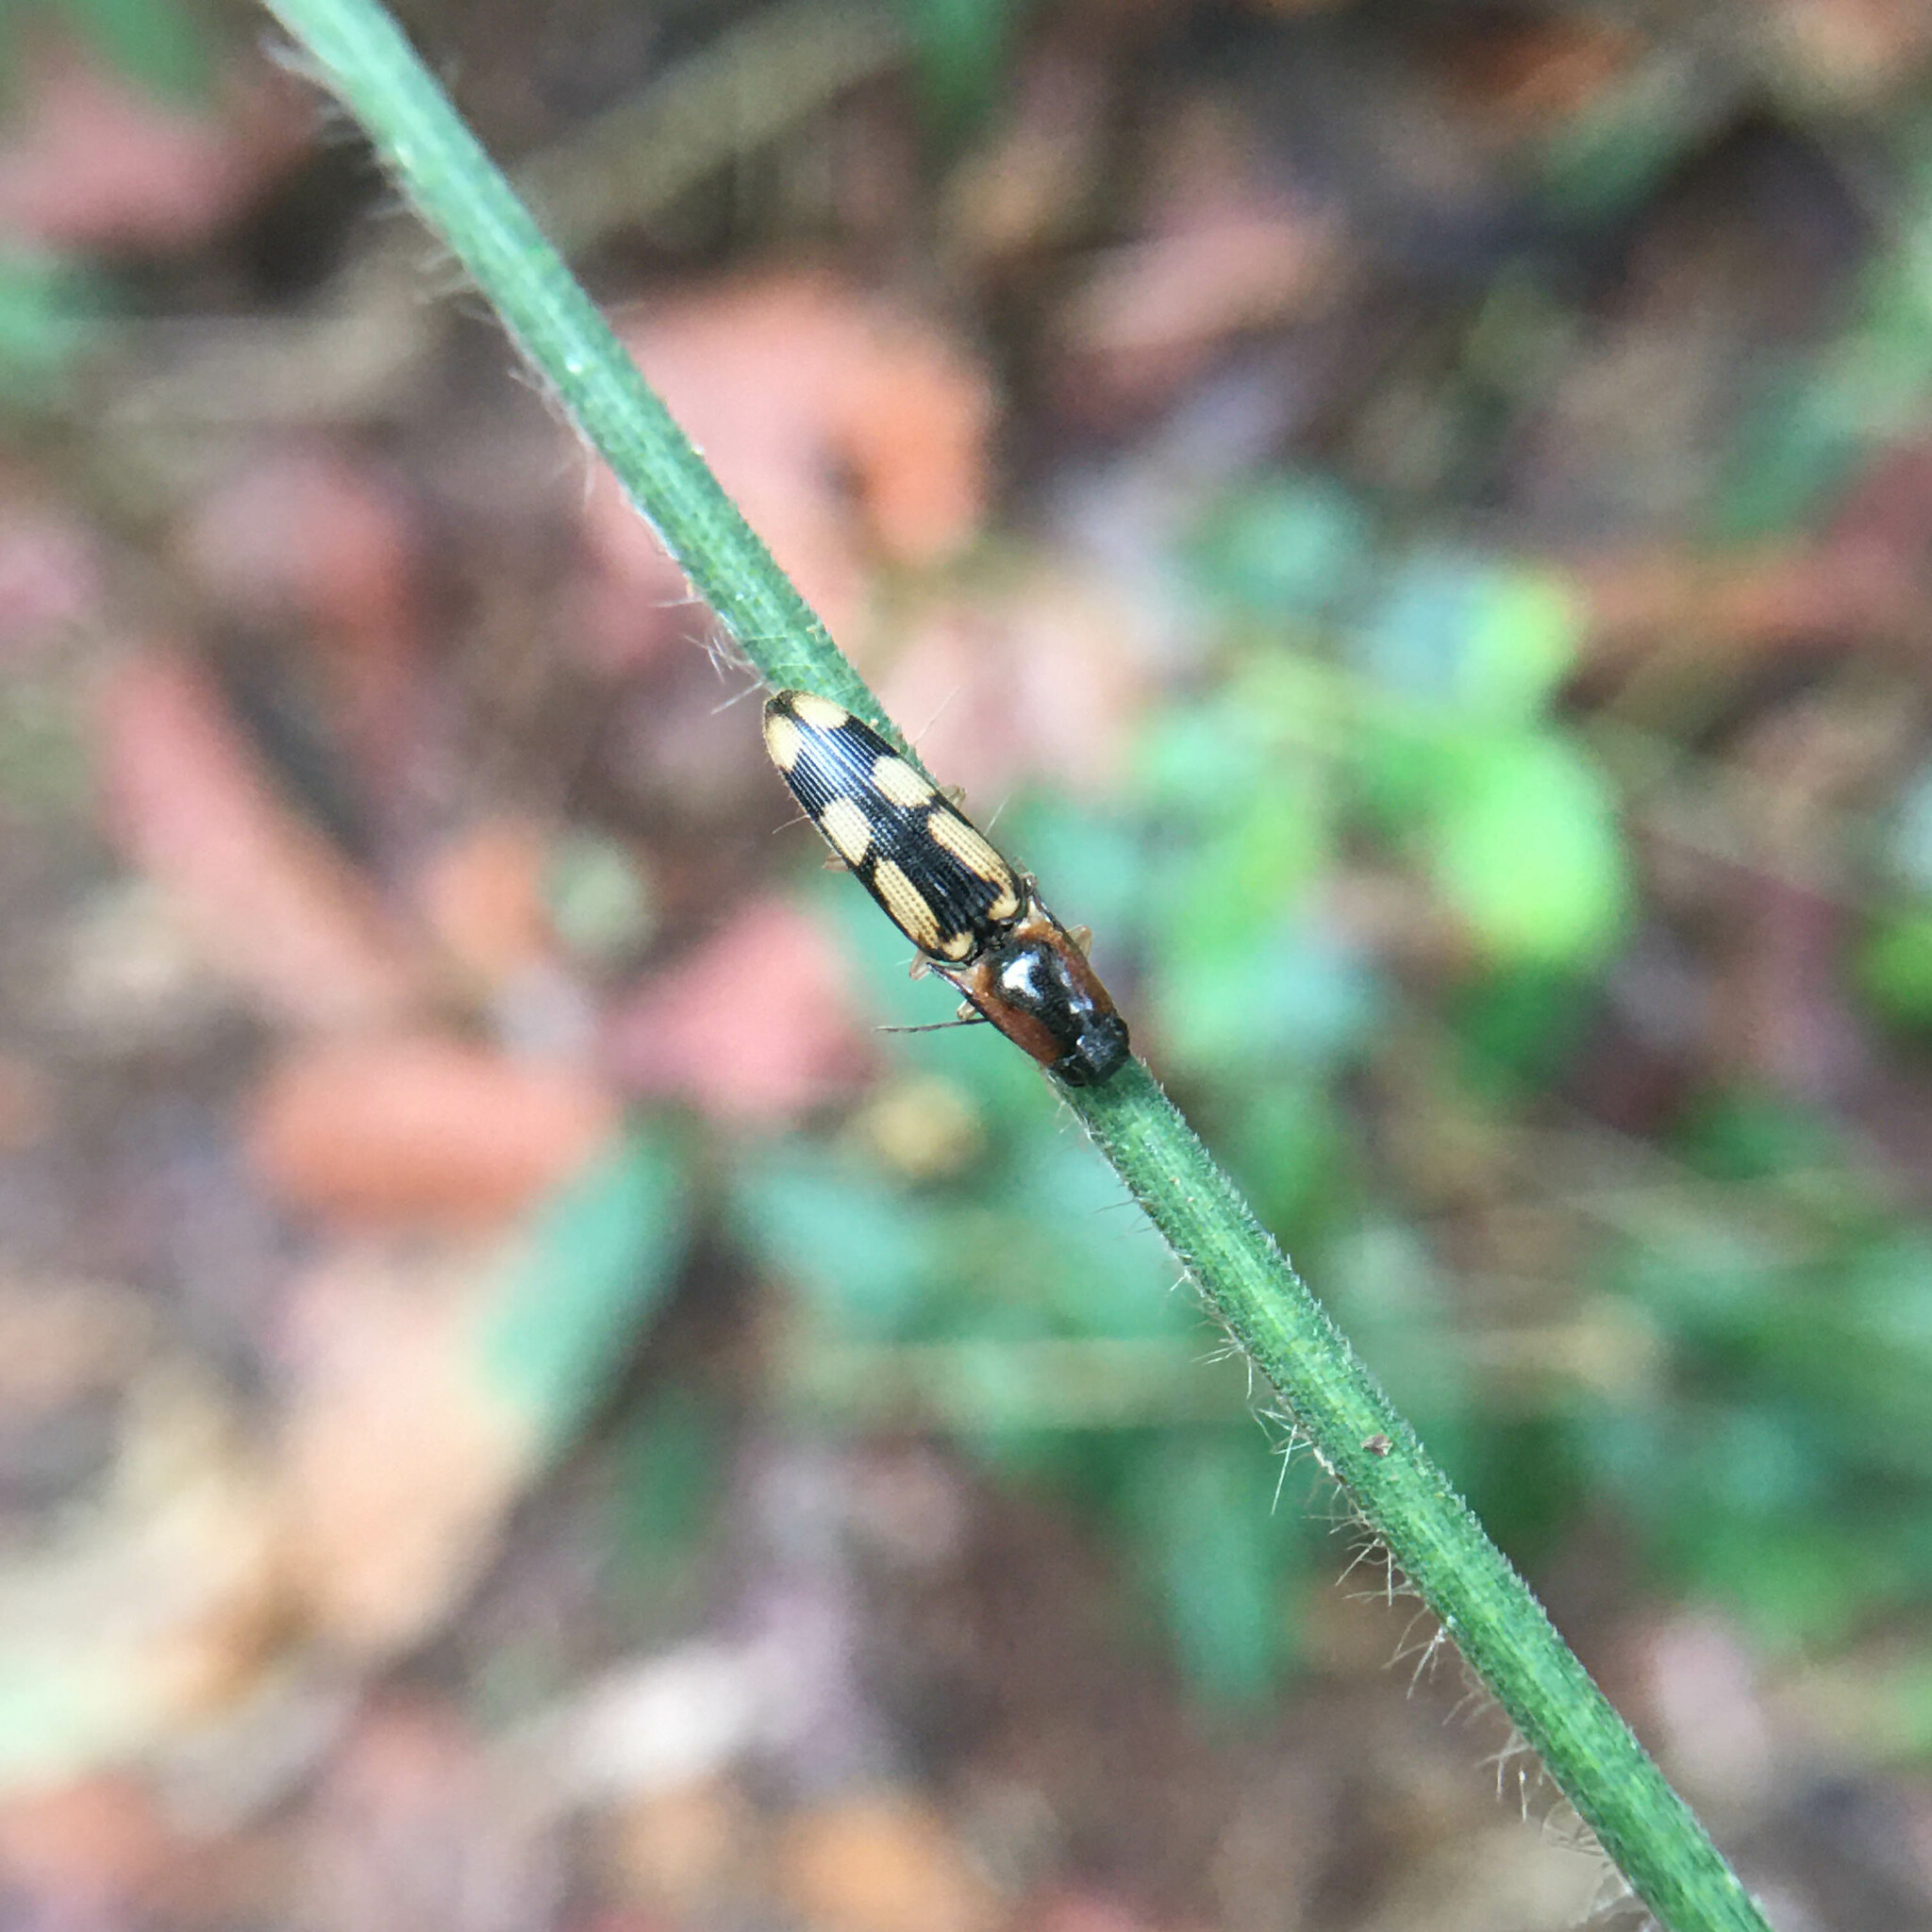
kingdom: Animalia
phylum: Arthropoda
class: Insecta
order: Coleoptera
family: Elateridae
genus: Aeolus
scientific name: Aeolus
